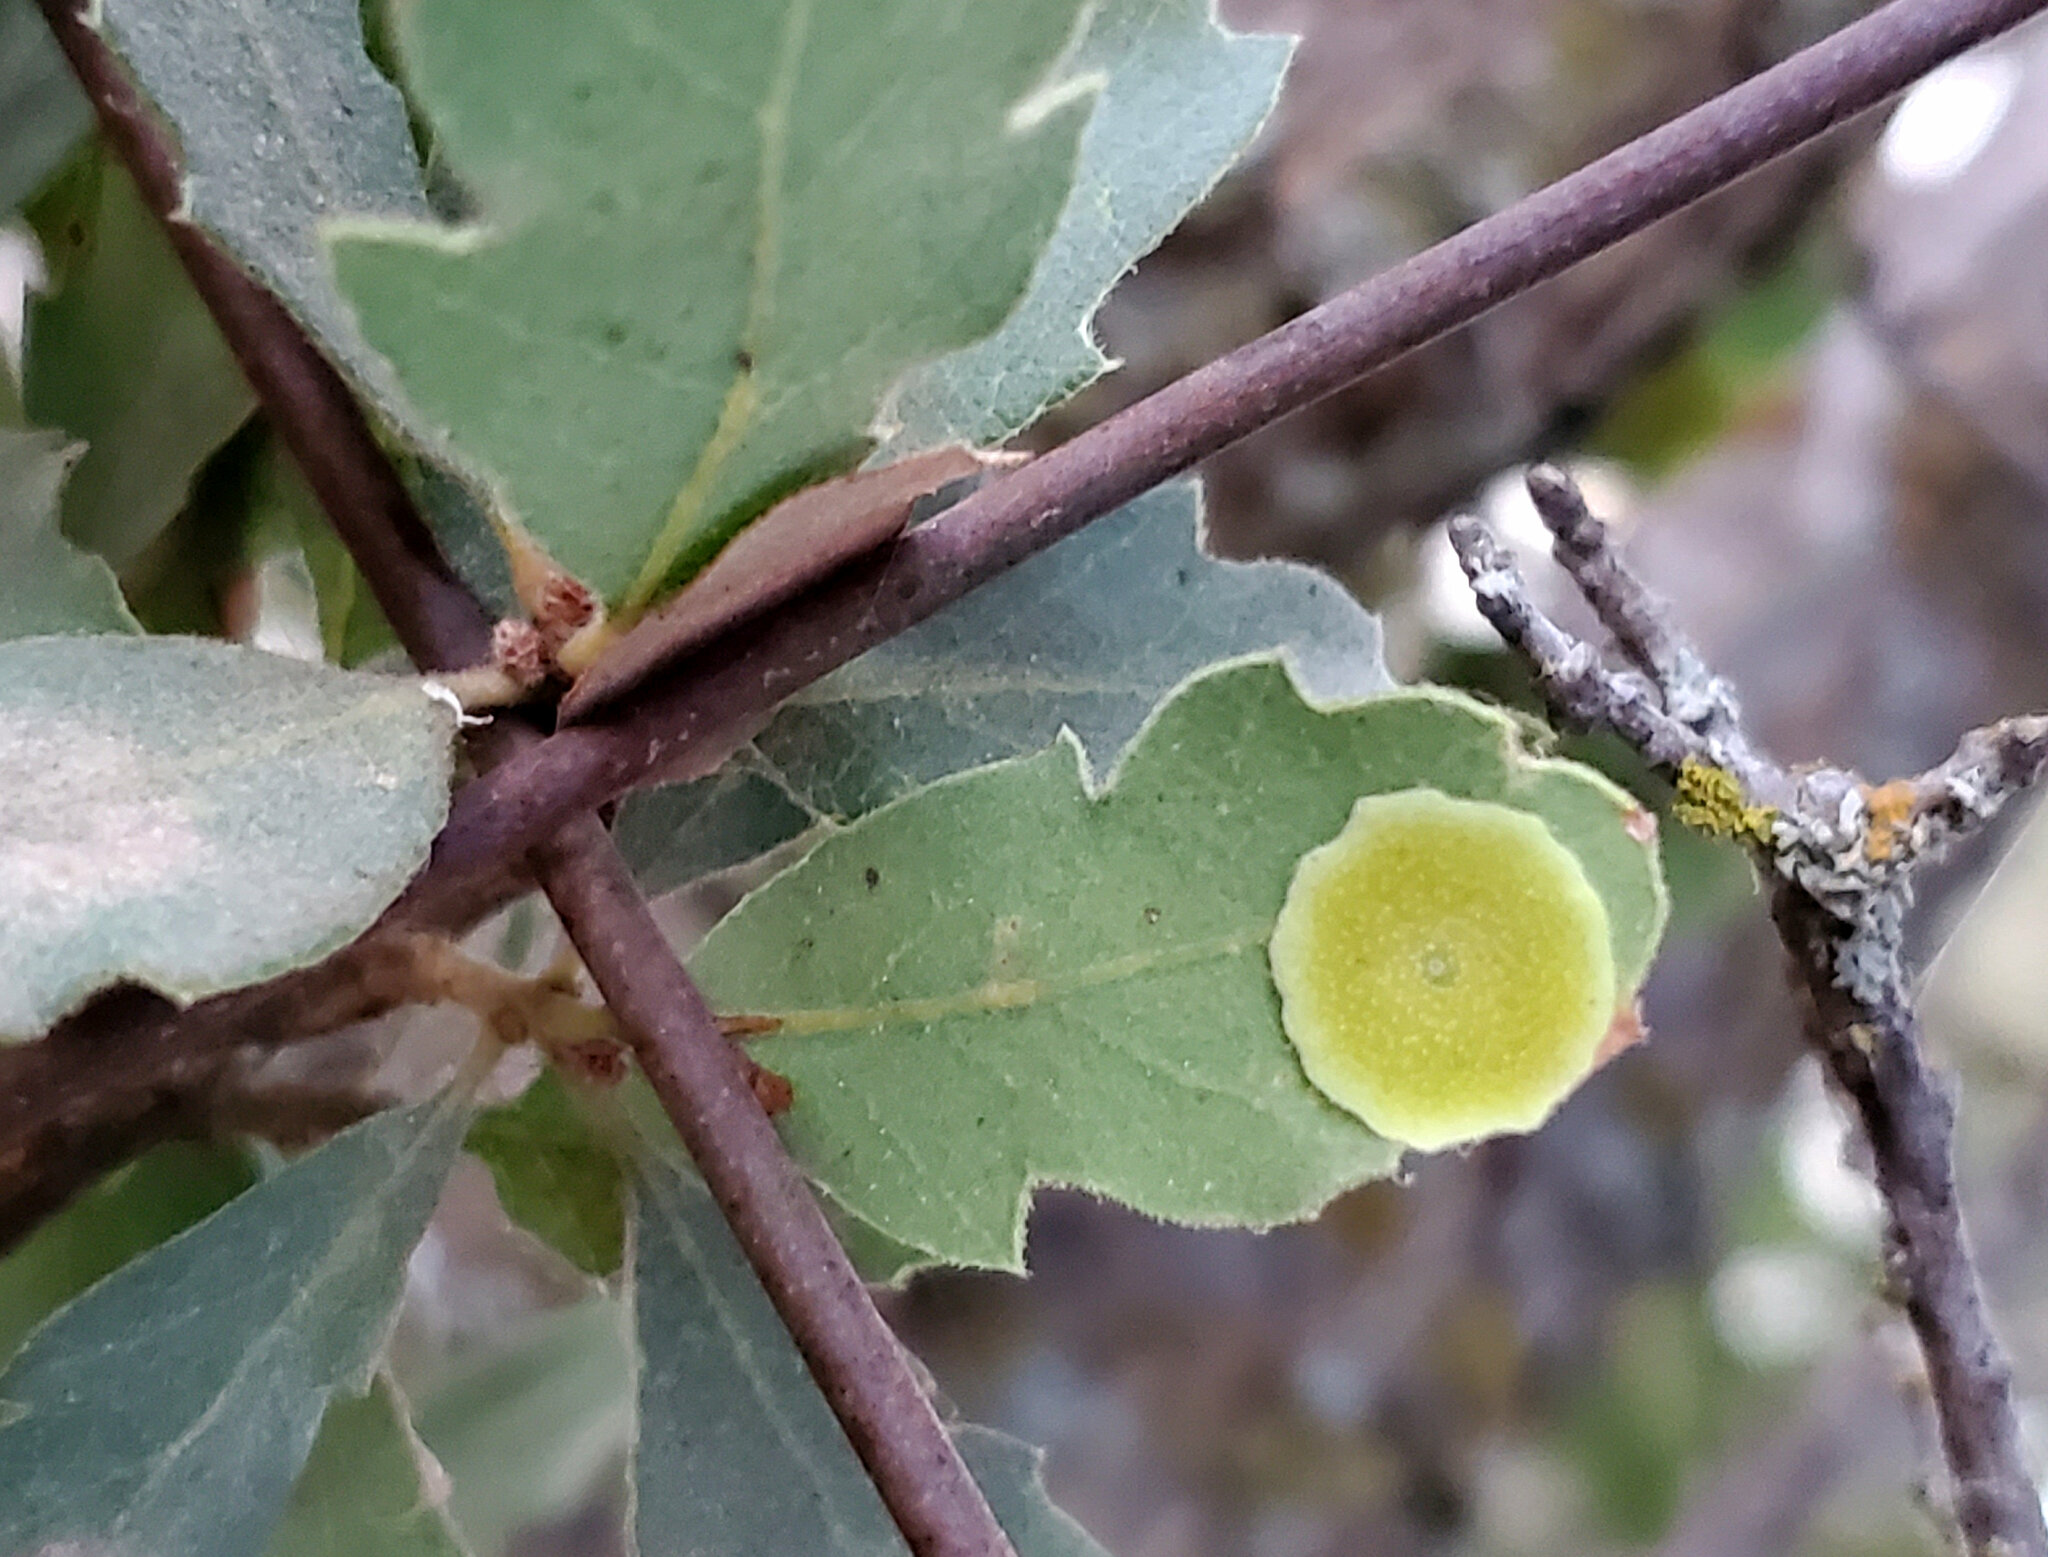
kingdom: Animalia
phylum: Arthropoda
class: Insecta
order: Hymenoptera
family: Cynipidae
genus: Andricus
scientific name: Andricus
